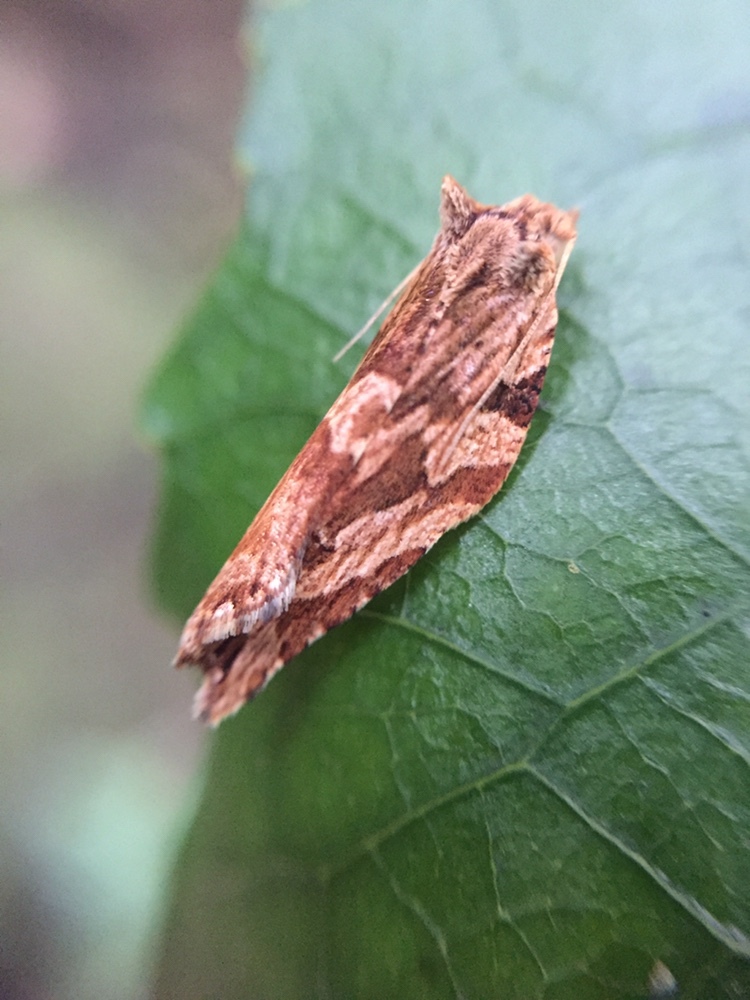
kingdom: Animalia
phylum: Arthropoda
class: Insecta
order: Lepidoptera
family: Tortricidae
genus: Epalxiphora
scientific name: Epalxiphora axenana
